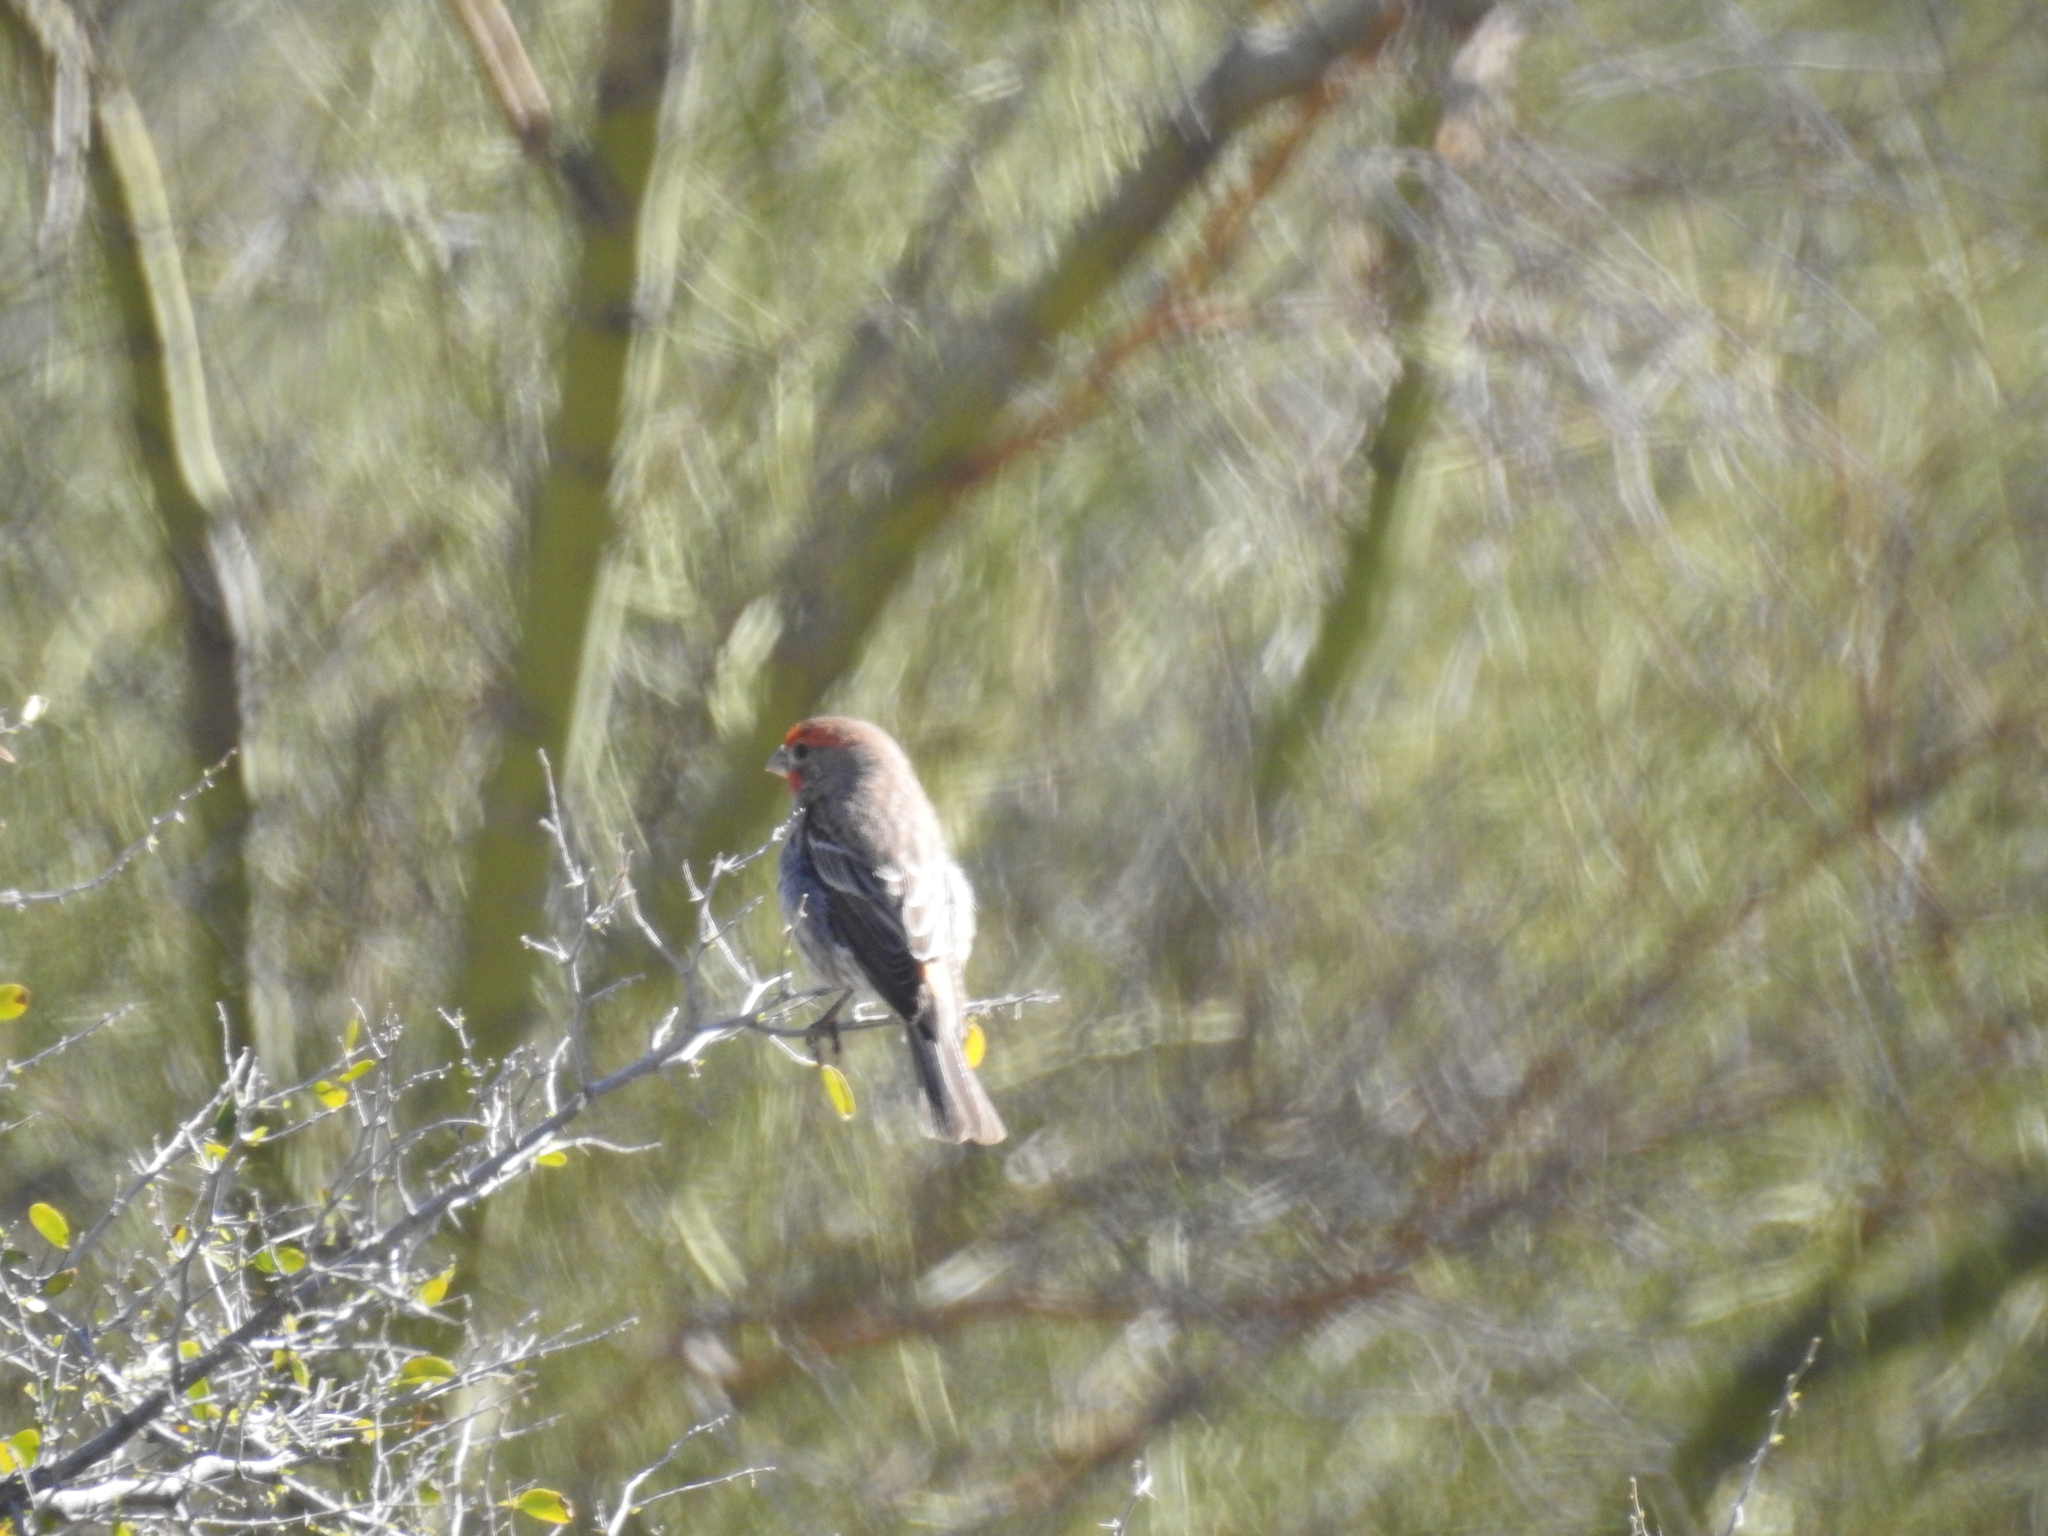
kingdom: Animalia
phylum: Chordata
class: Aves
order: Passeriformes
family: Fringillidae
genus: Haemorhous
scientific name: Haemorhous mexicanus
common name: House finch
